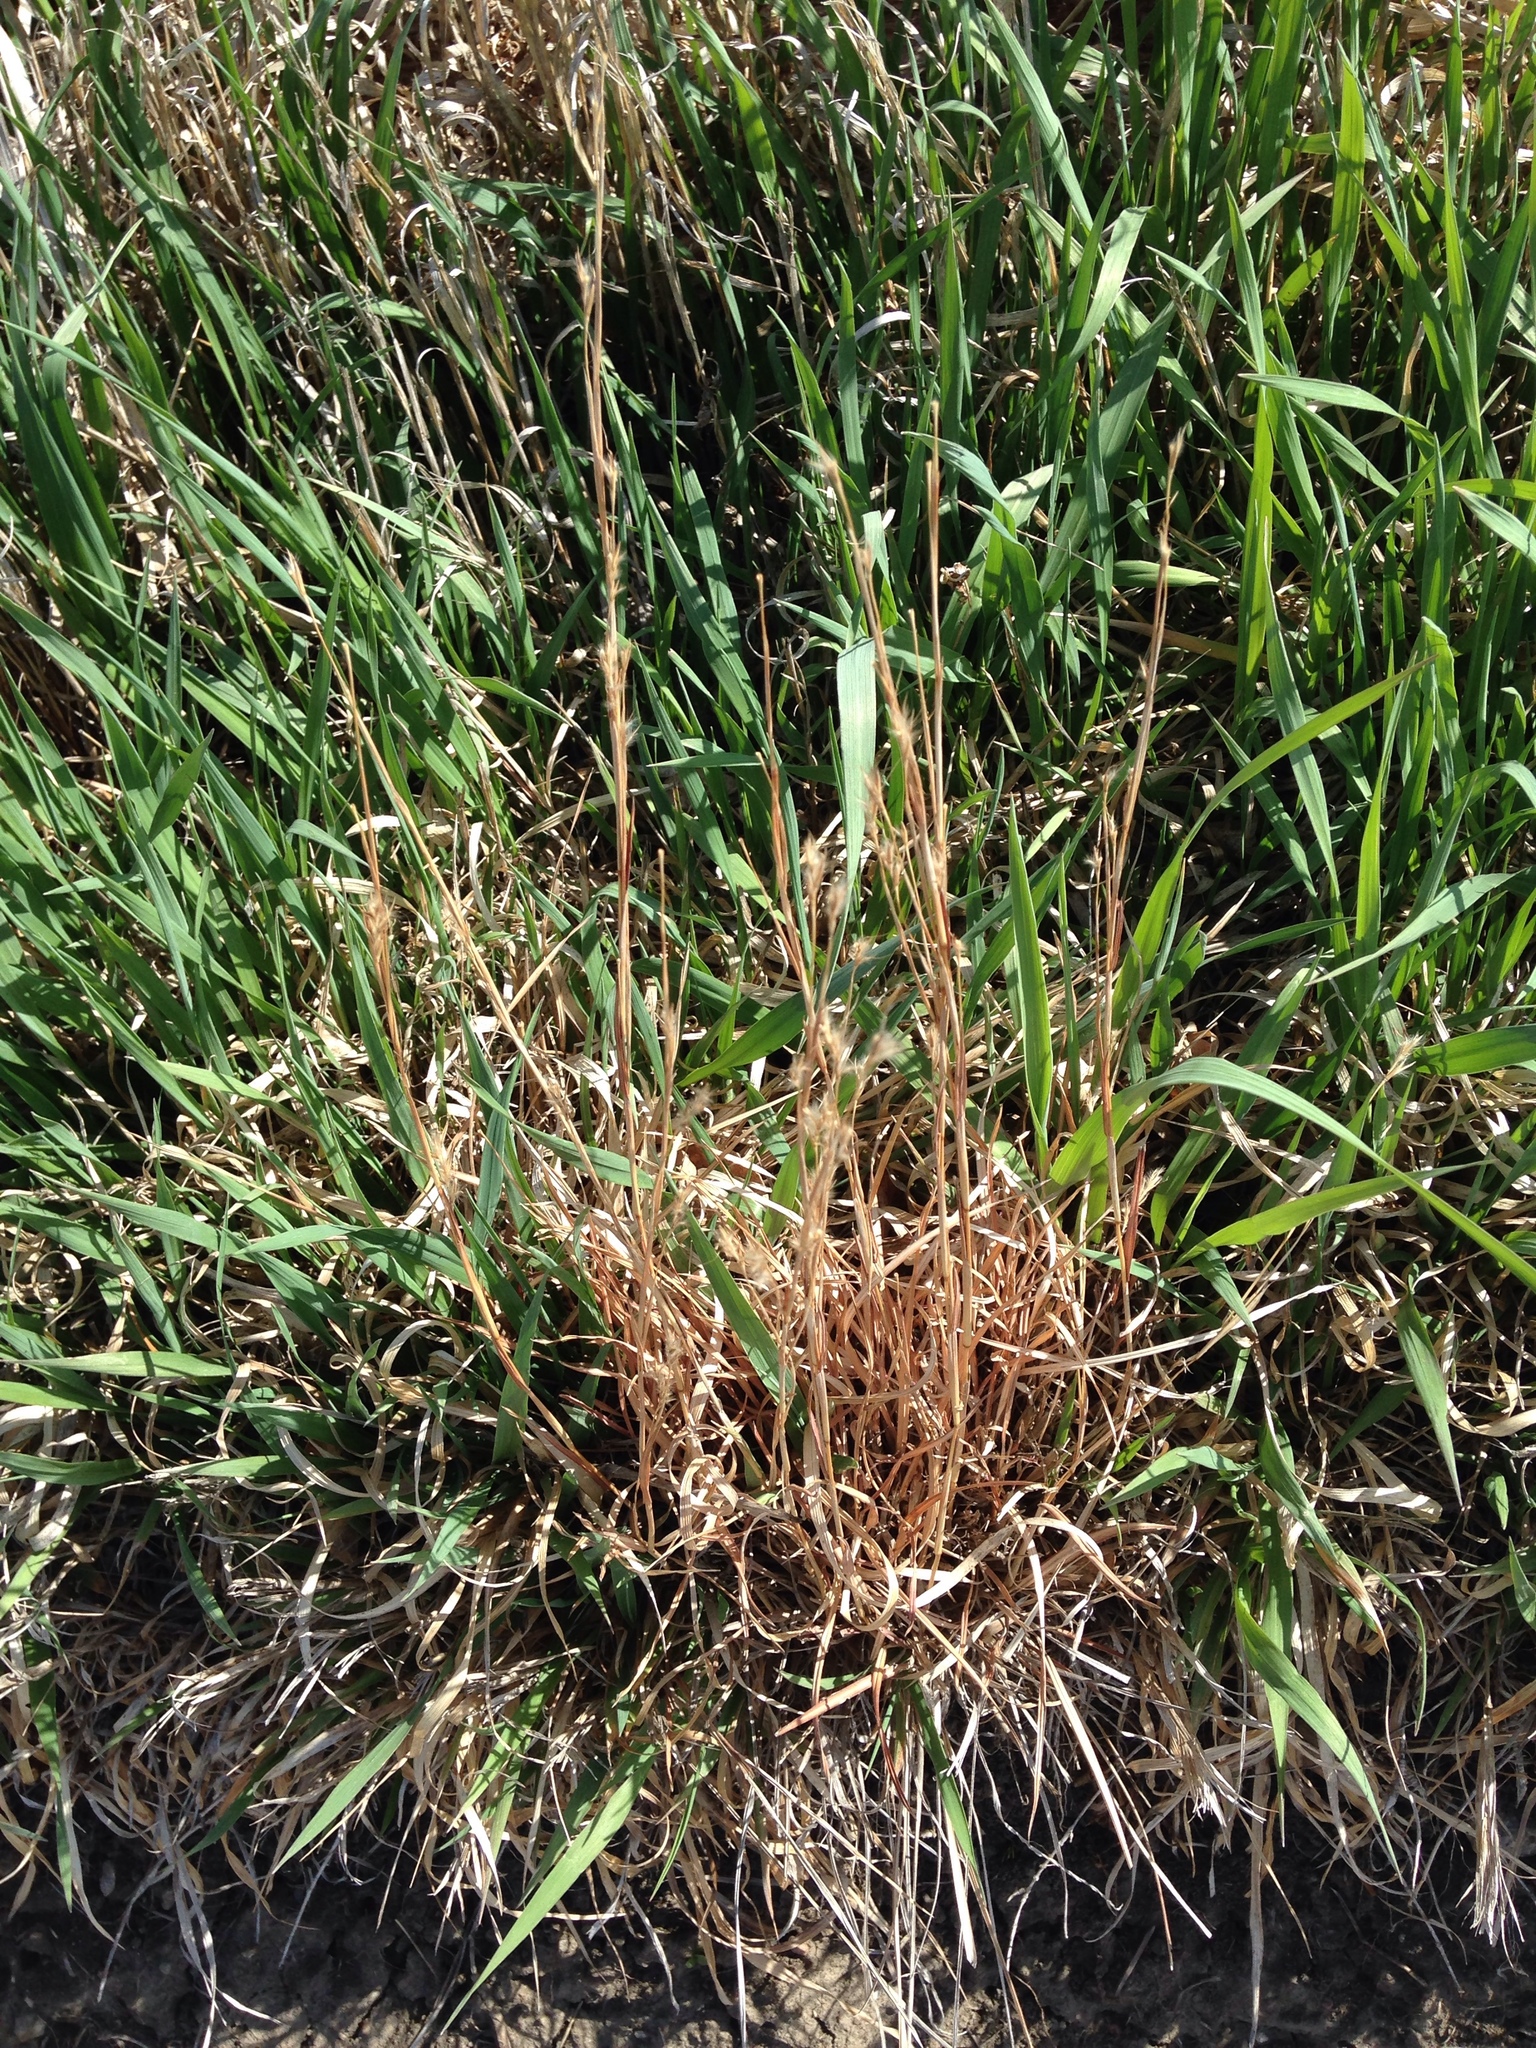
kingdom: Plantae
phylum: Tracheophyta
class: Liliopsida
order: Poales
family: Poaceae
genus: Schizachyrium
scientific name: Schizachyrium scoparium
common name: Little bluestem
